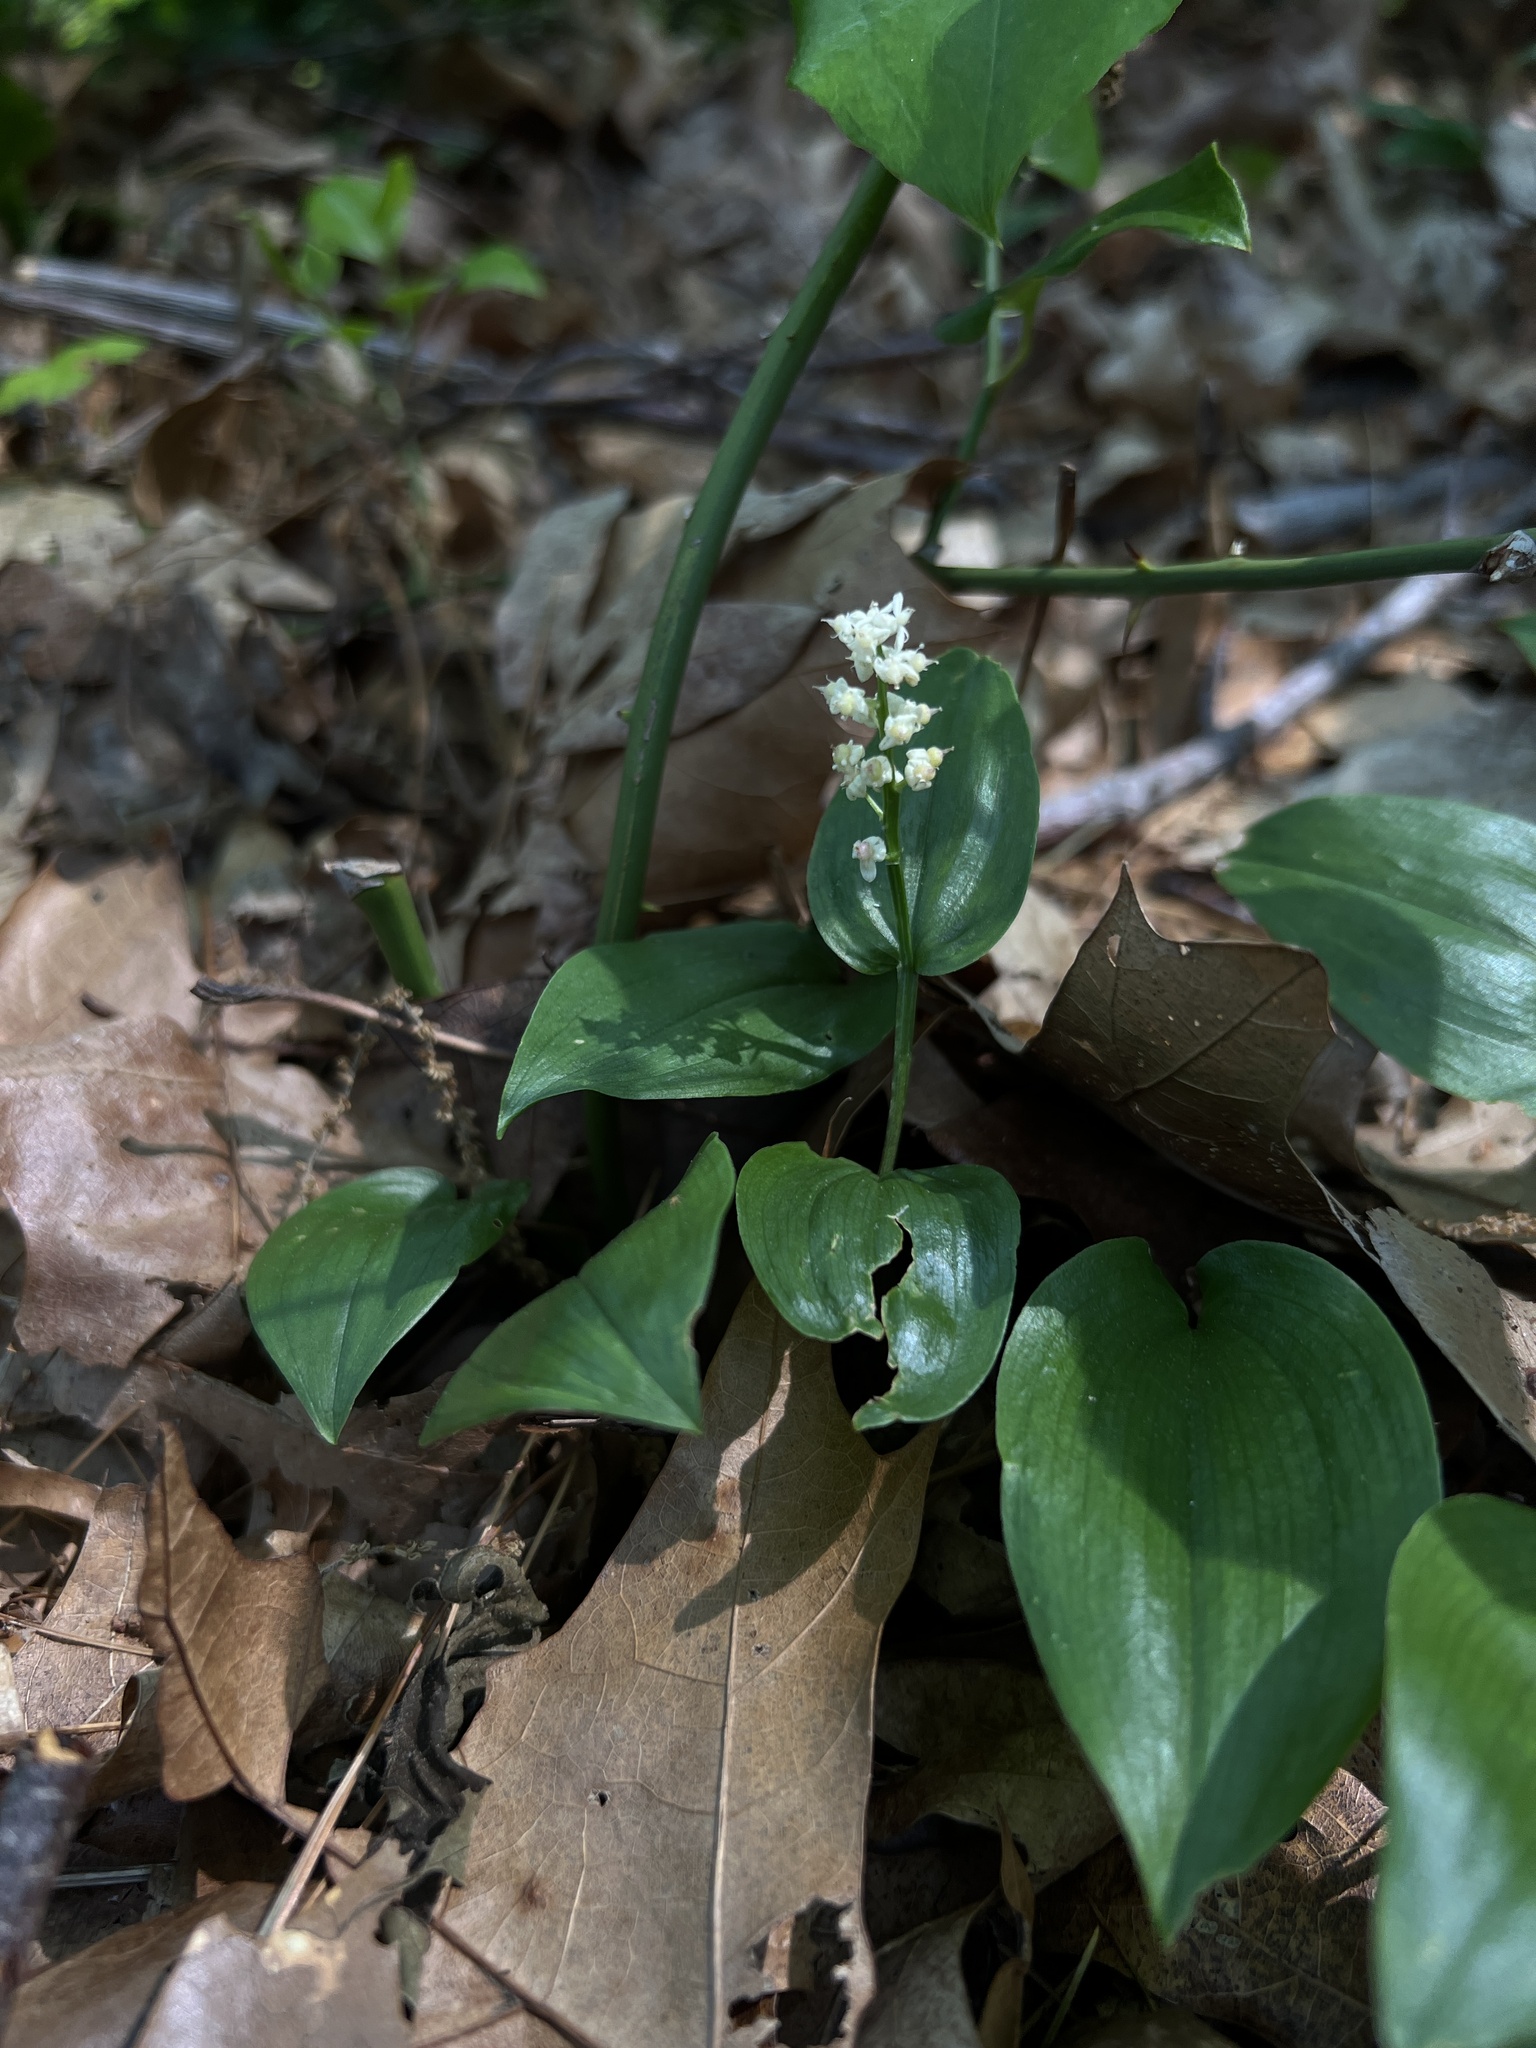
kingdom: Plantae
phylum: Tracheophyta
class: Liliopsida
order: Asparagales
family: Asparagaceae
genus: Maianthemum
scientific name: Maianthemum canadense
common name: False lily-of-the-valley
